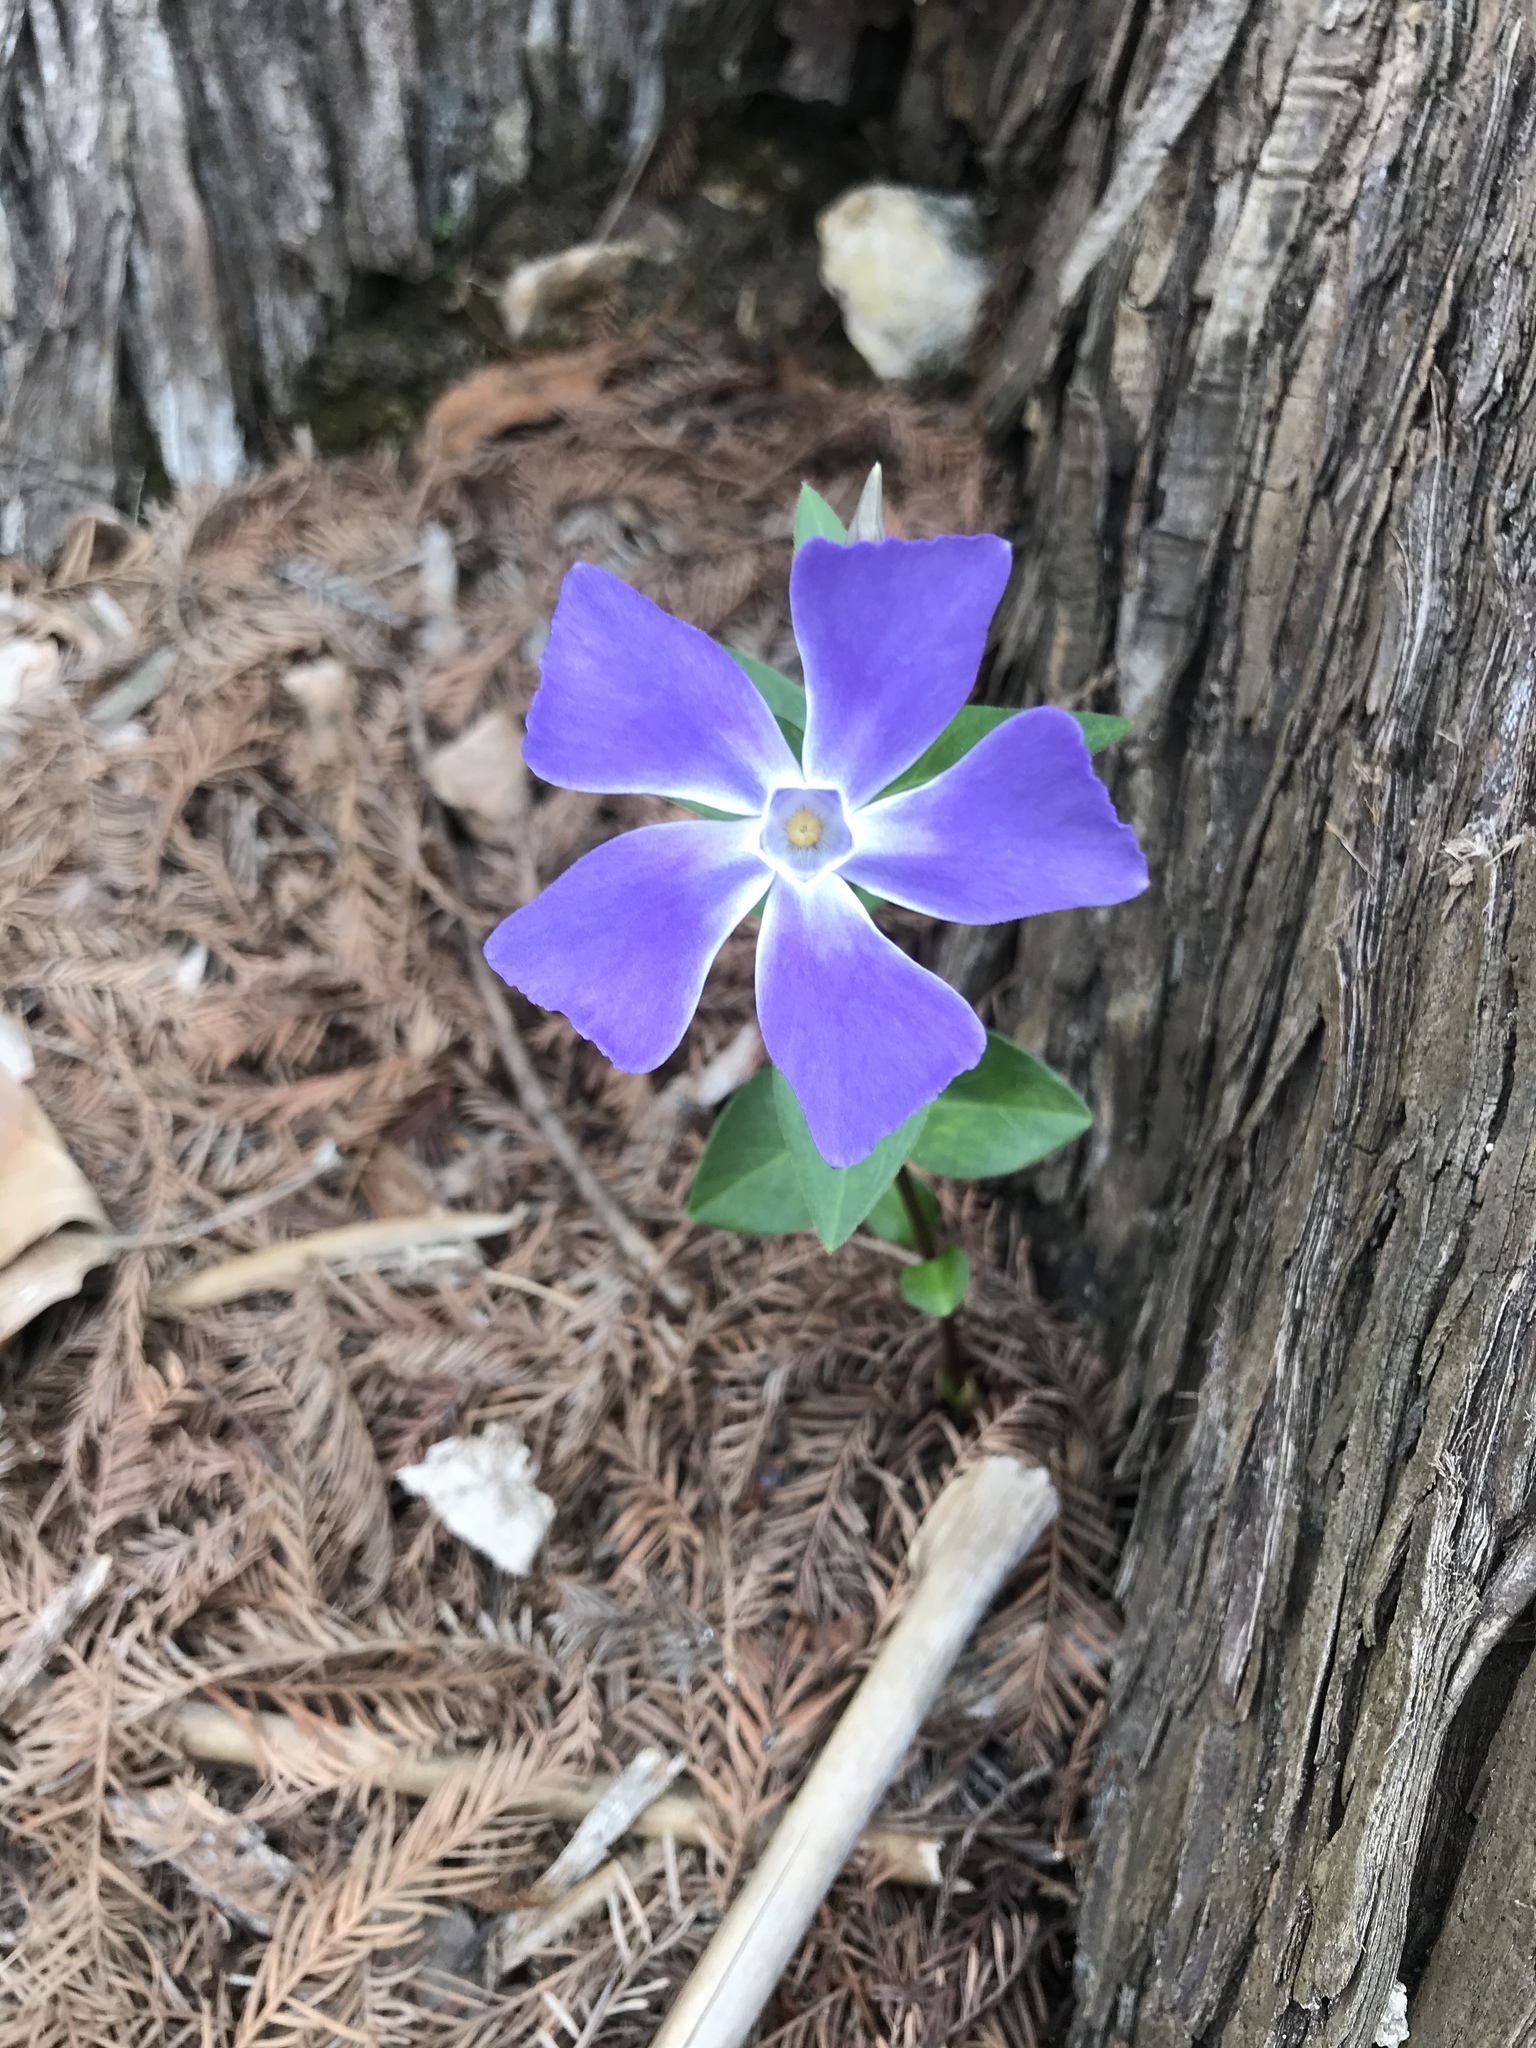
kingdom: Plantae
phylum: Tracheophyta
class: Magnoliopsida
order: Gentianales
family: Apocynaceae
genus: Vinca
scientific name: Vinca major
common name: Greater periwinkle
